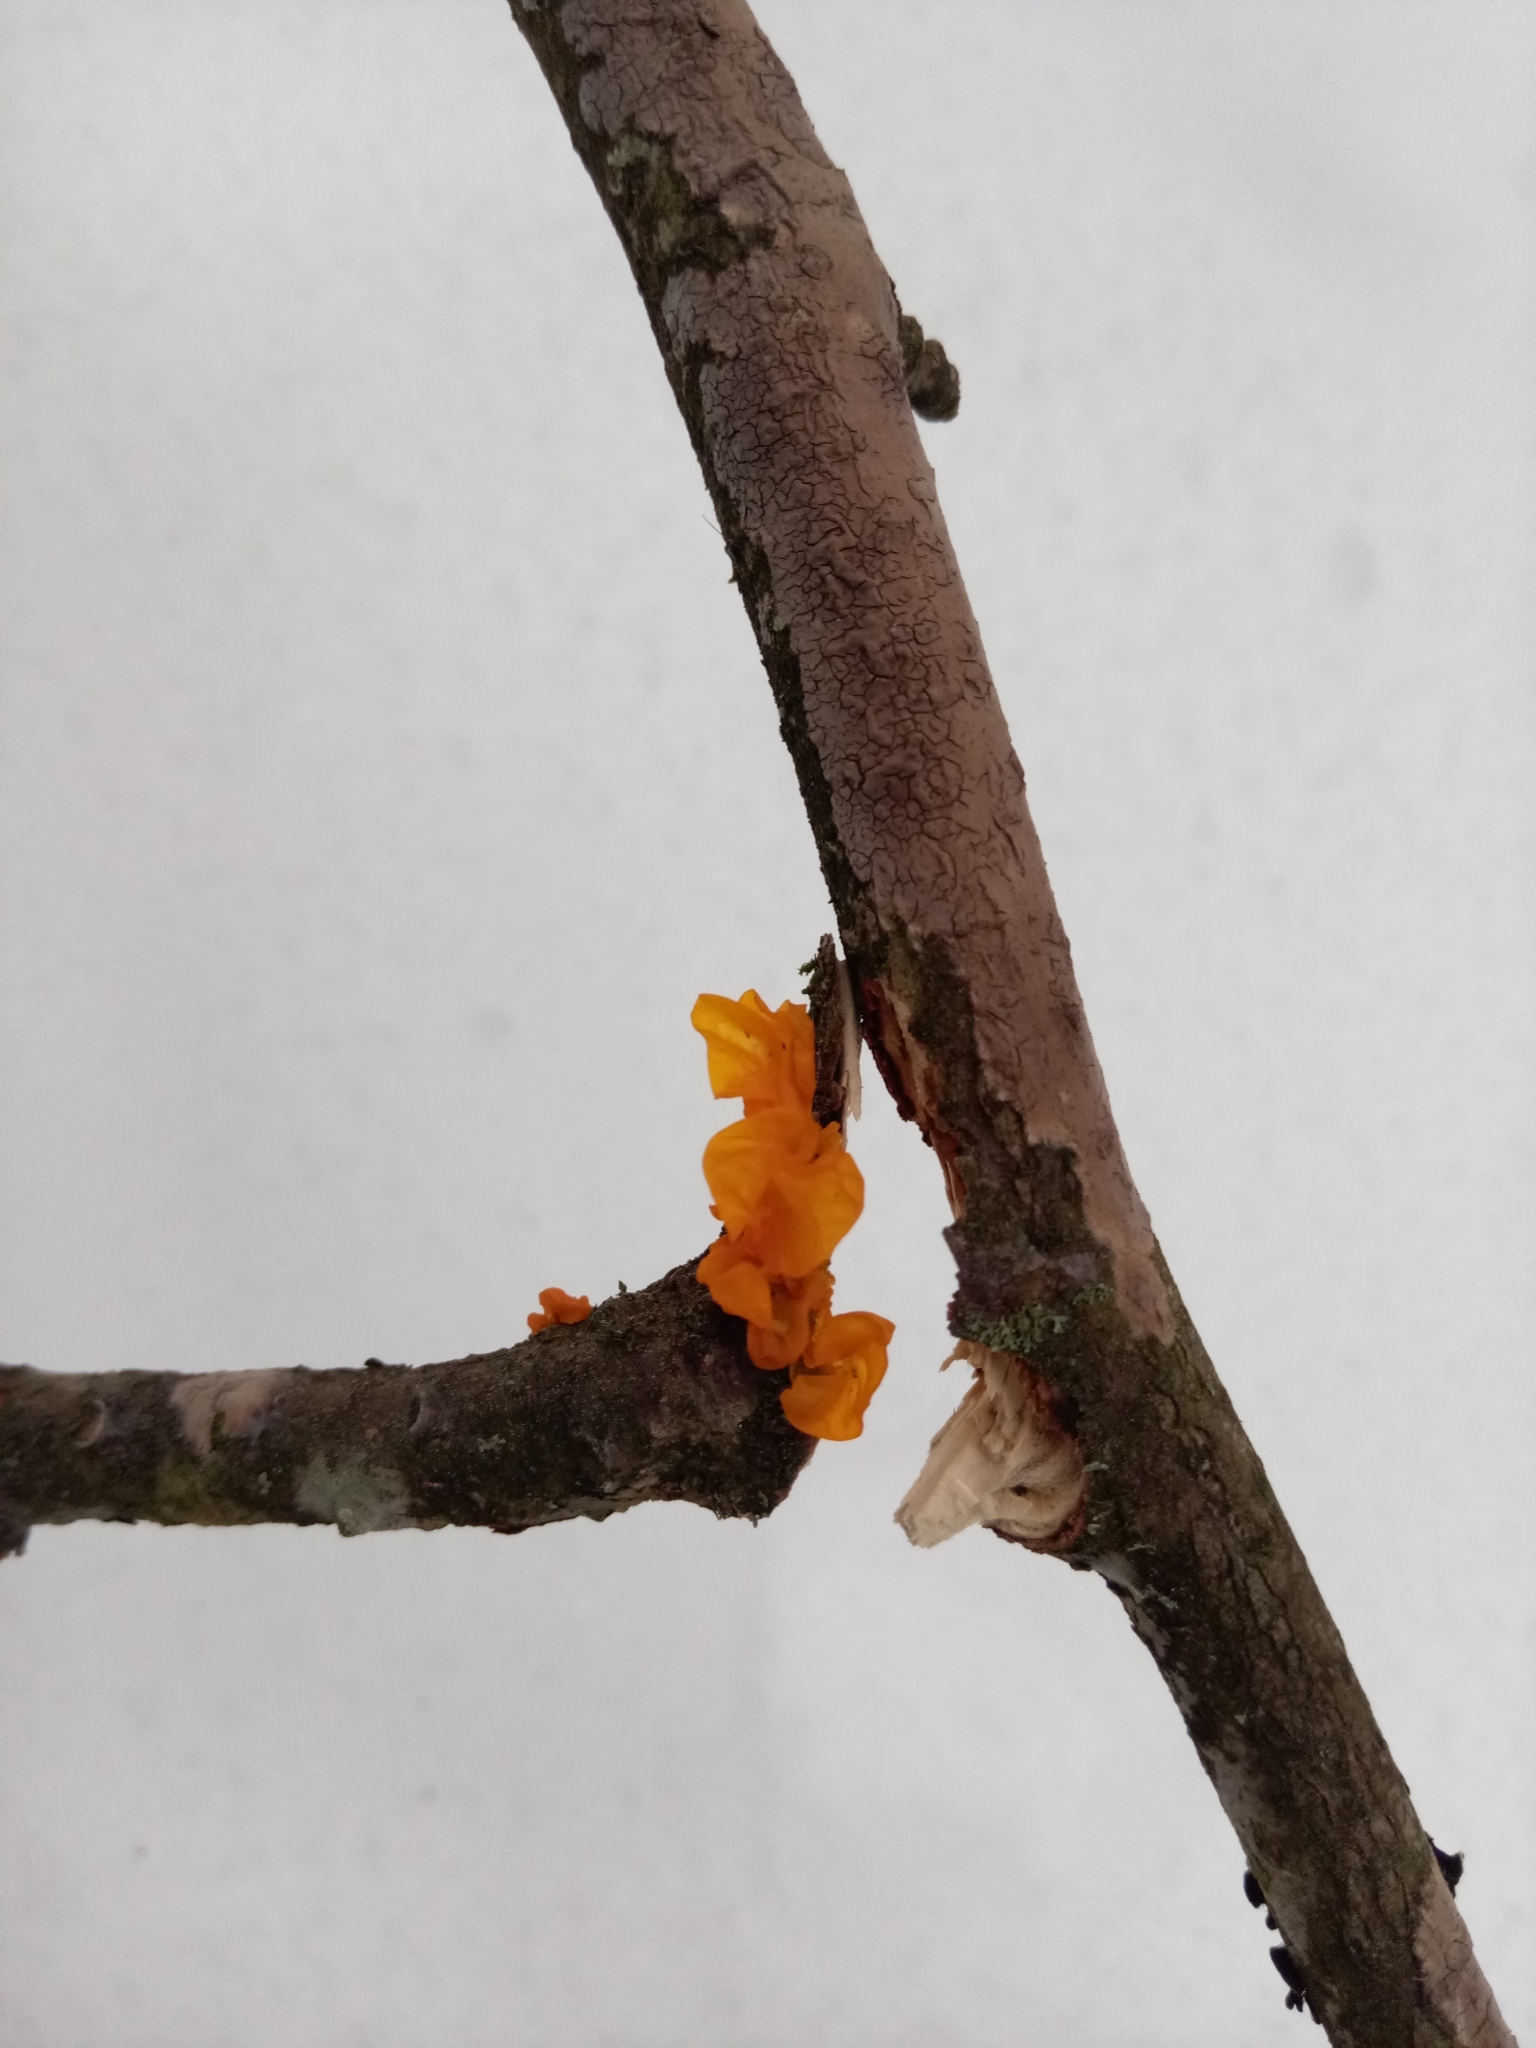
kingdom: Fungi
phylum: Basidiomycota
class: Tremellomycetes
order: Tremellales
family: Tremellaceae
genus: Tremella
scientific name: Tremella mesenterica
